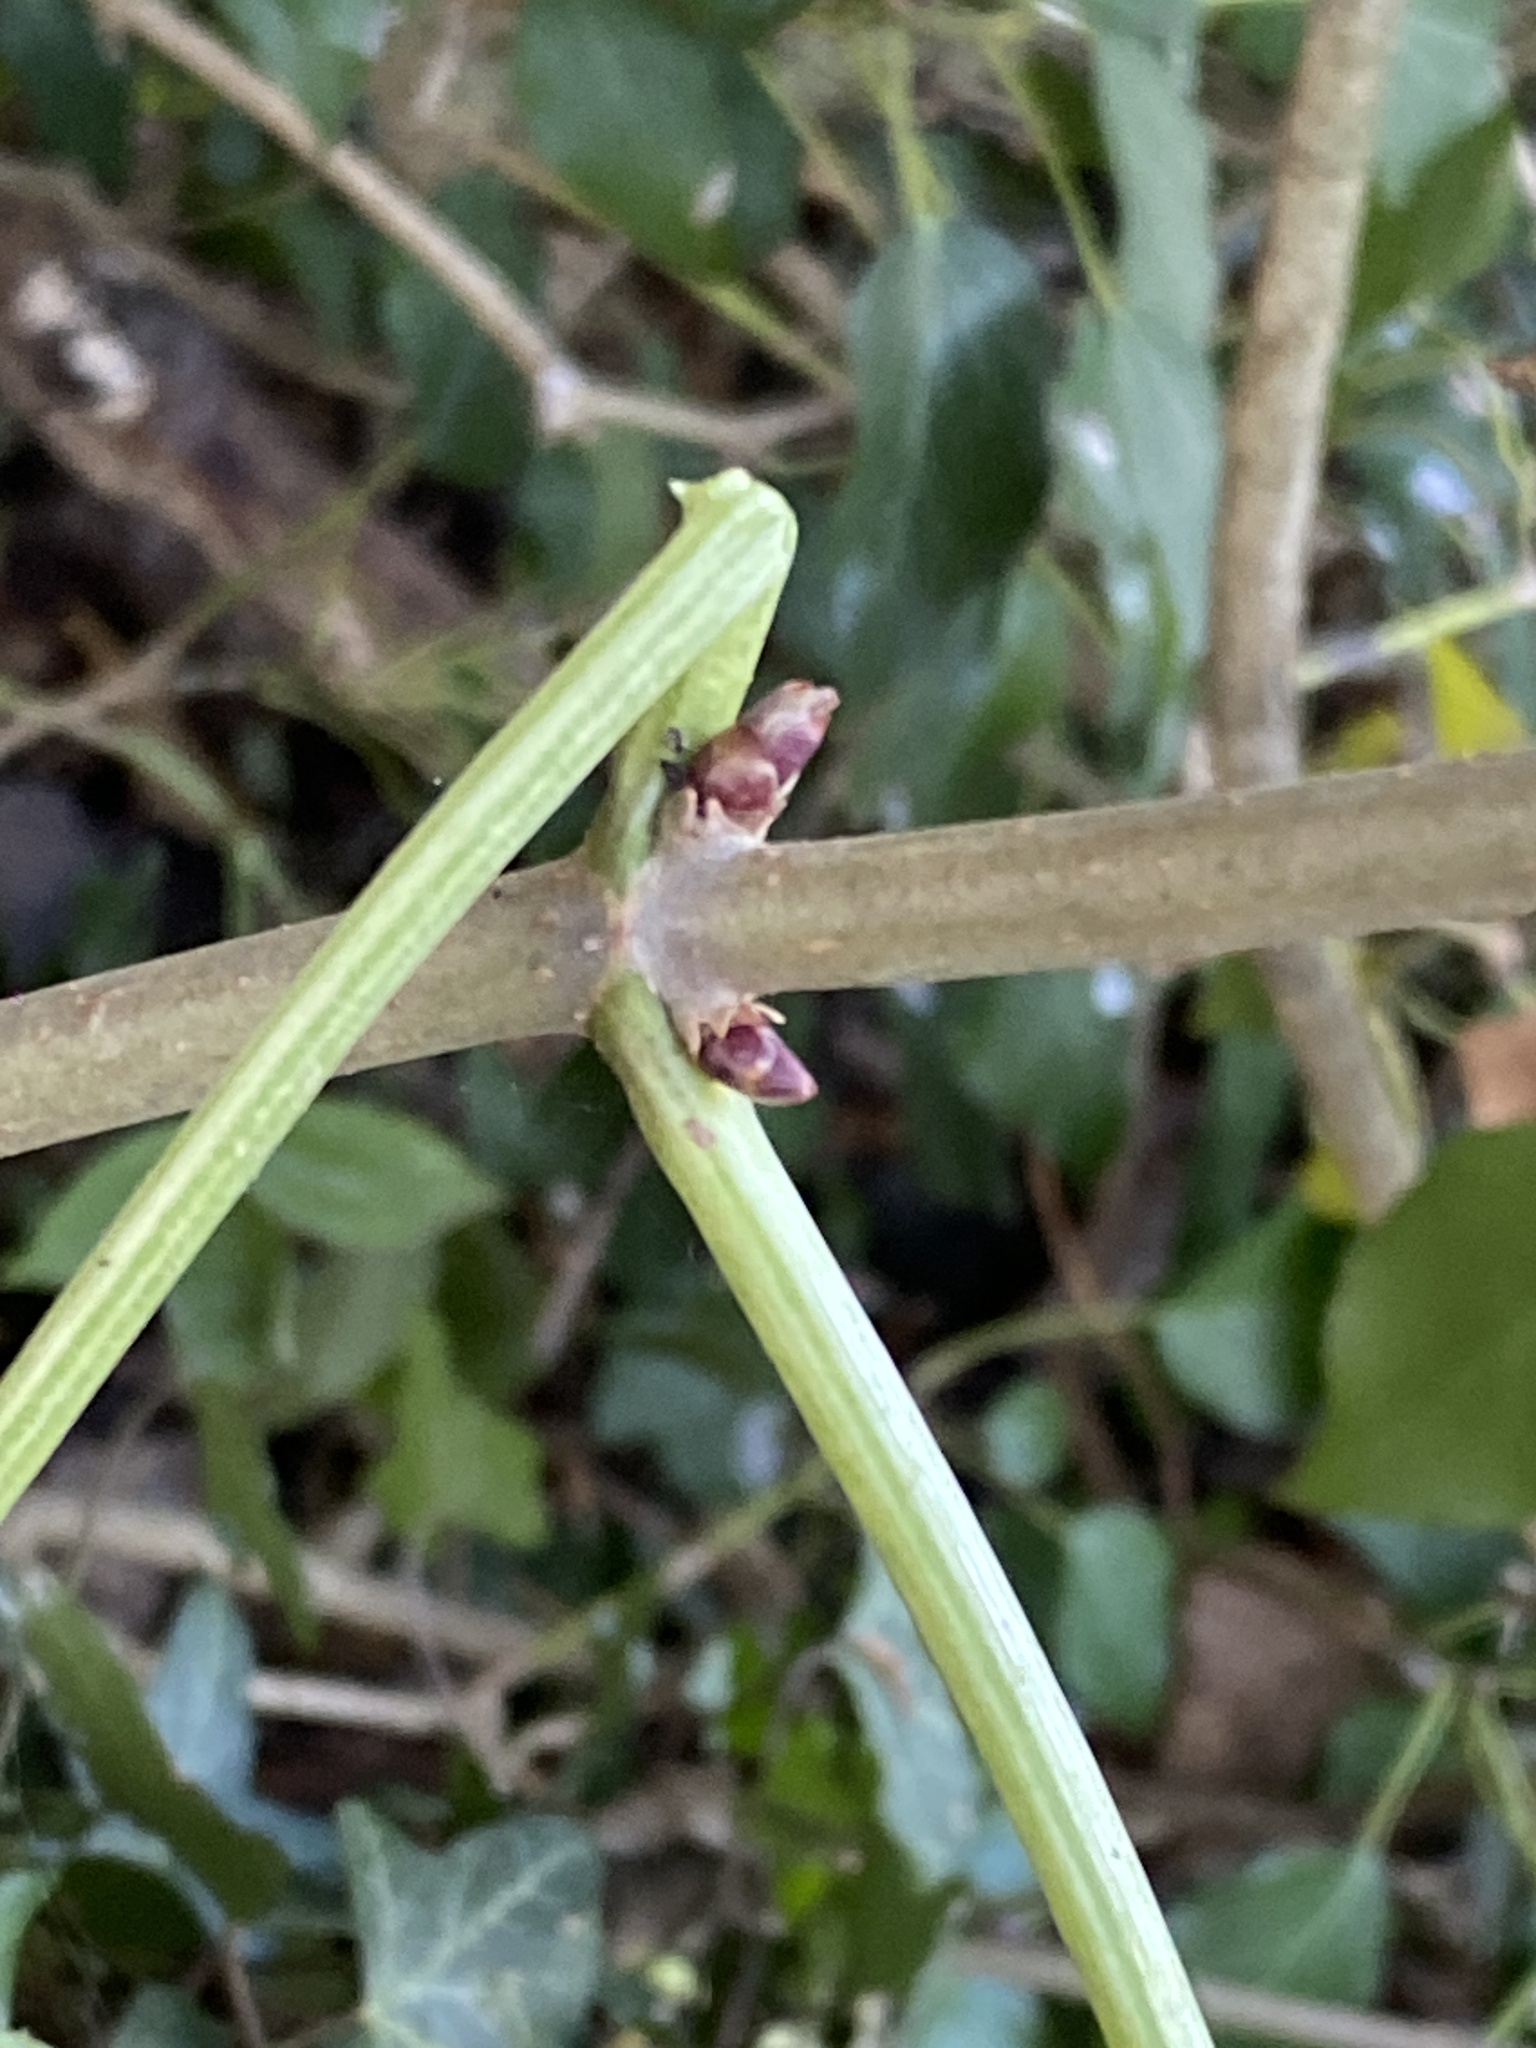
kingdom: Plantae
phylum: Tracheophyta
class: Magnoliopsida
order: Dipsacales
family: Viburnaceae
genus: Sambucus
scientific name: Sambucus nigra
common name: Elder
